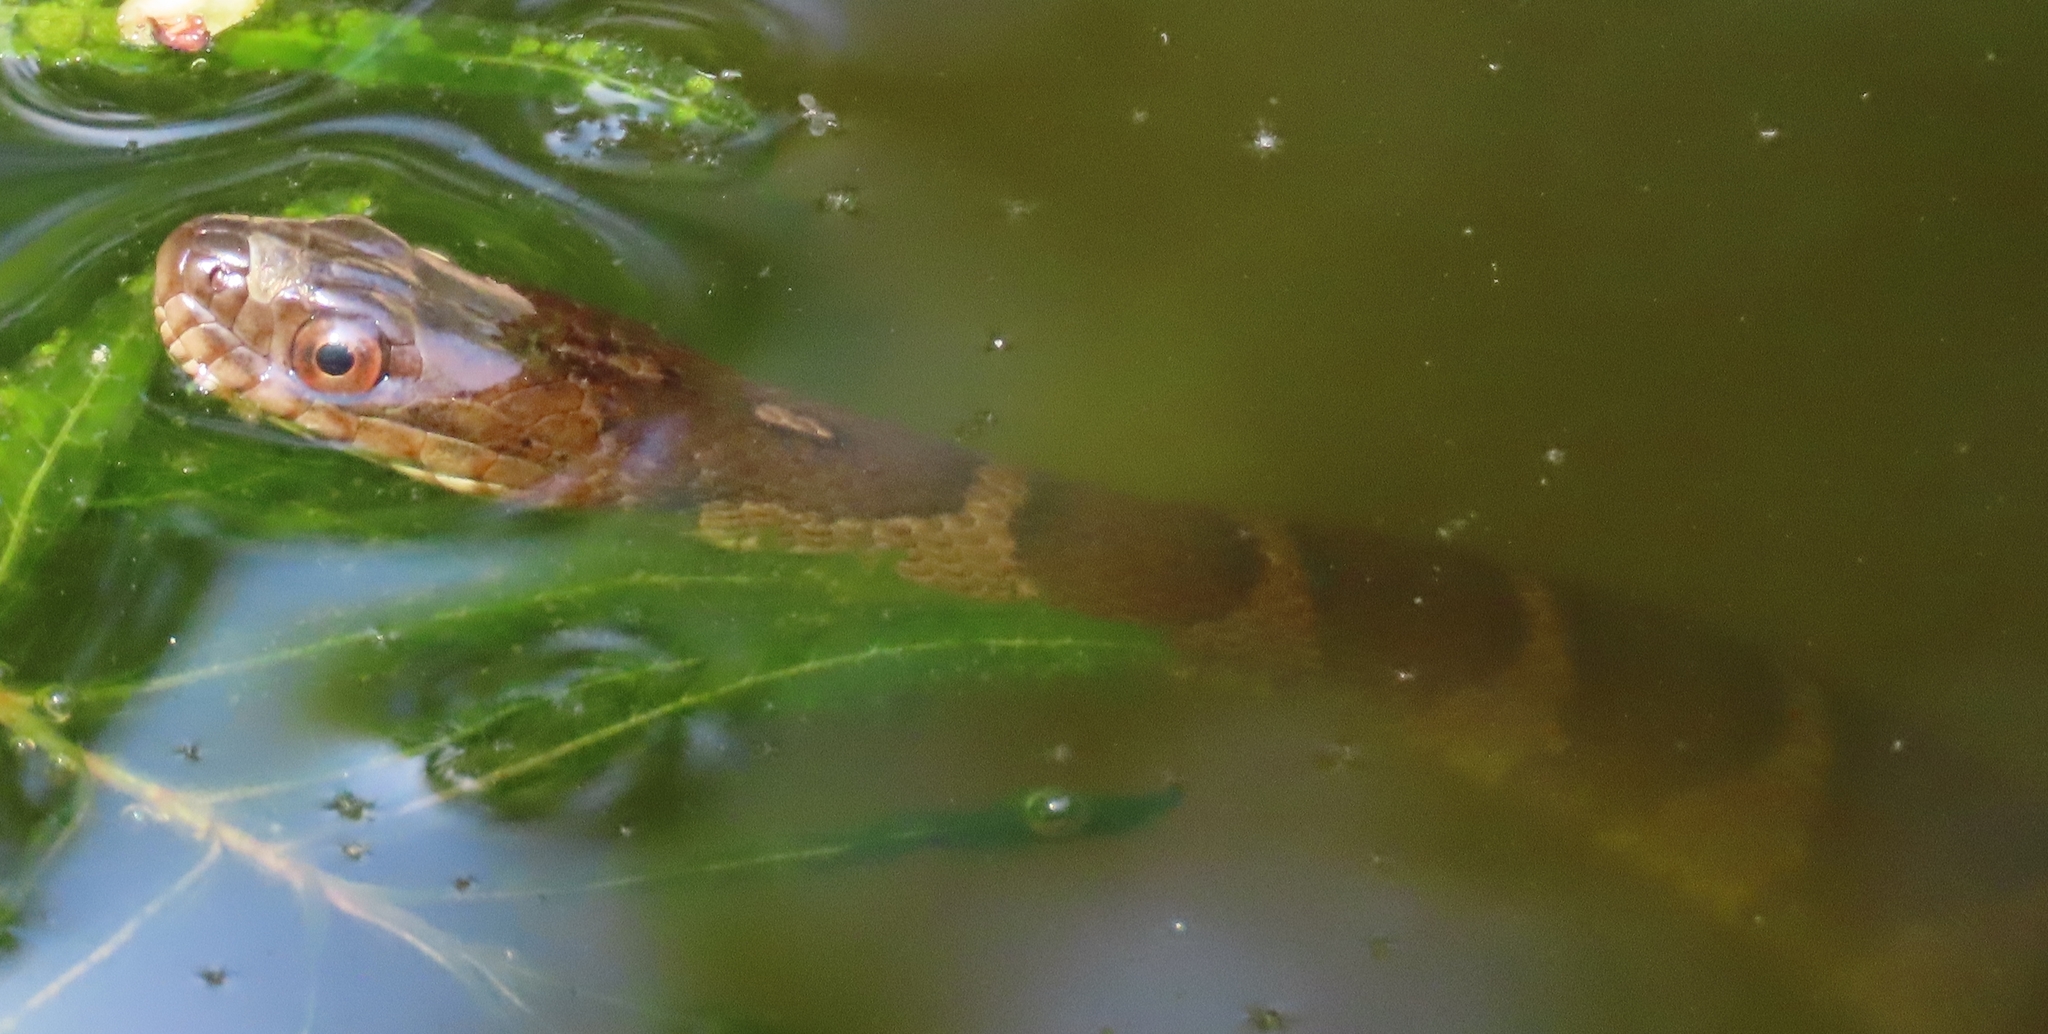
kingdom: Animalia
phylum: Chordata
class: Squamata
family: Colubridae
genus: Nerodia
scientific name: Nerodia sipedon
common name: Northern water snake
